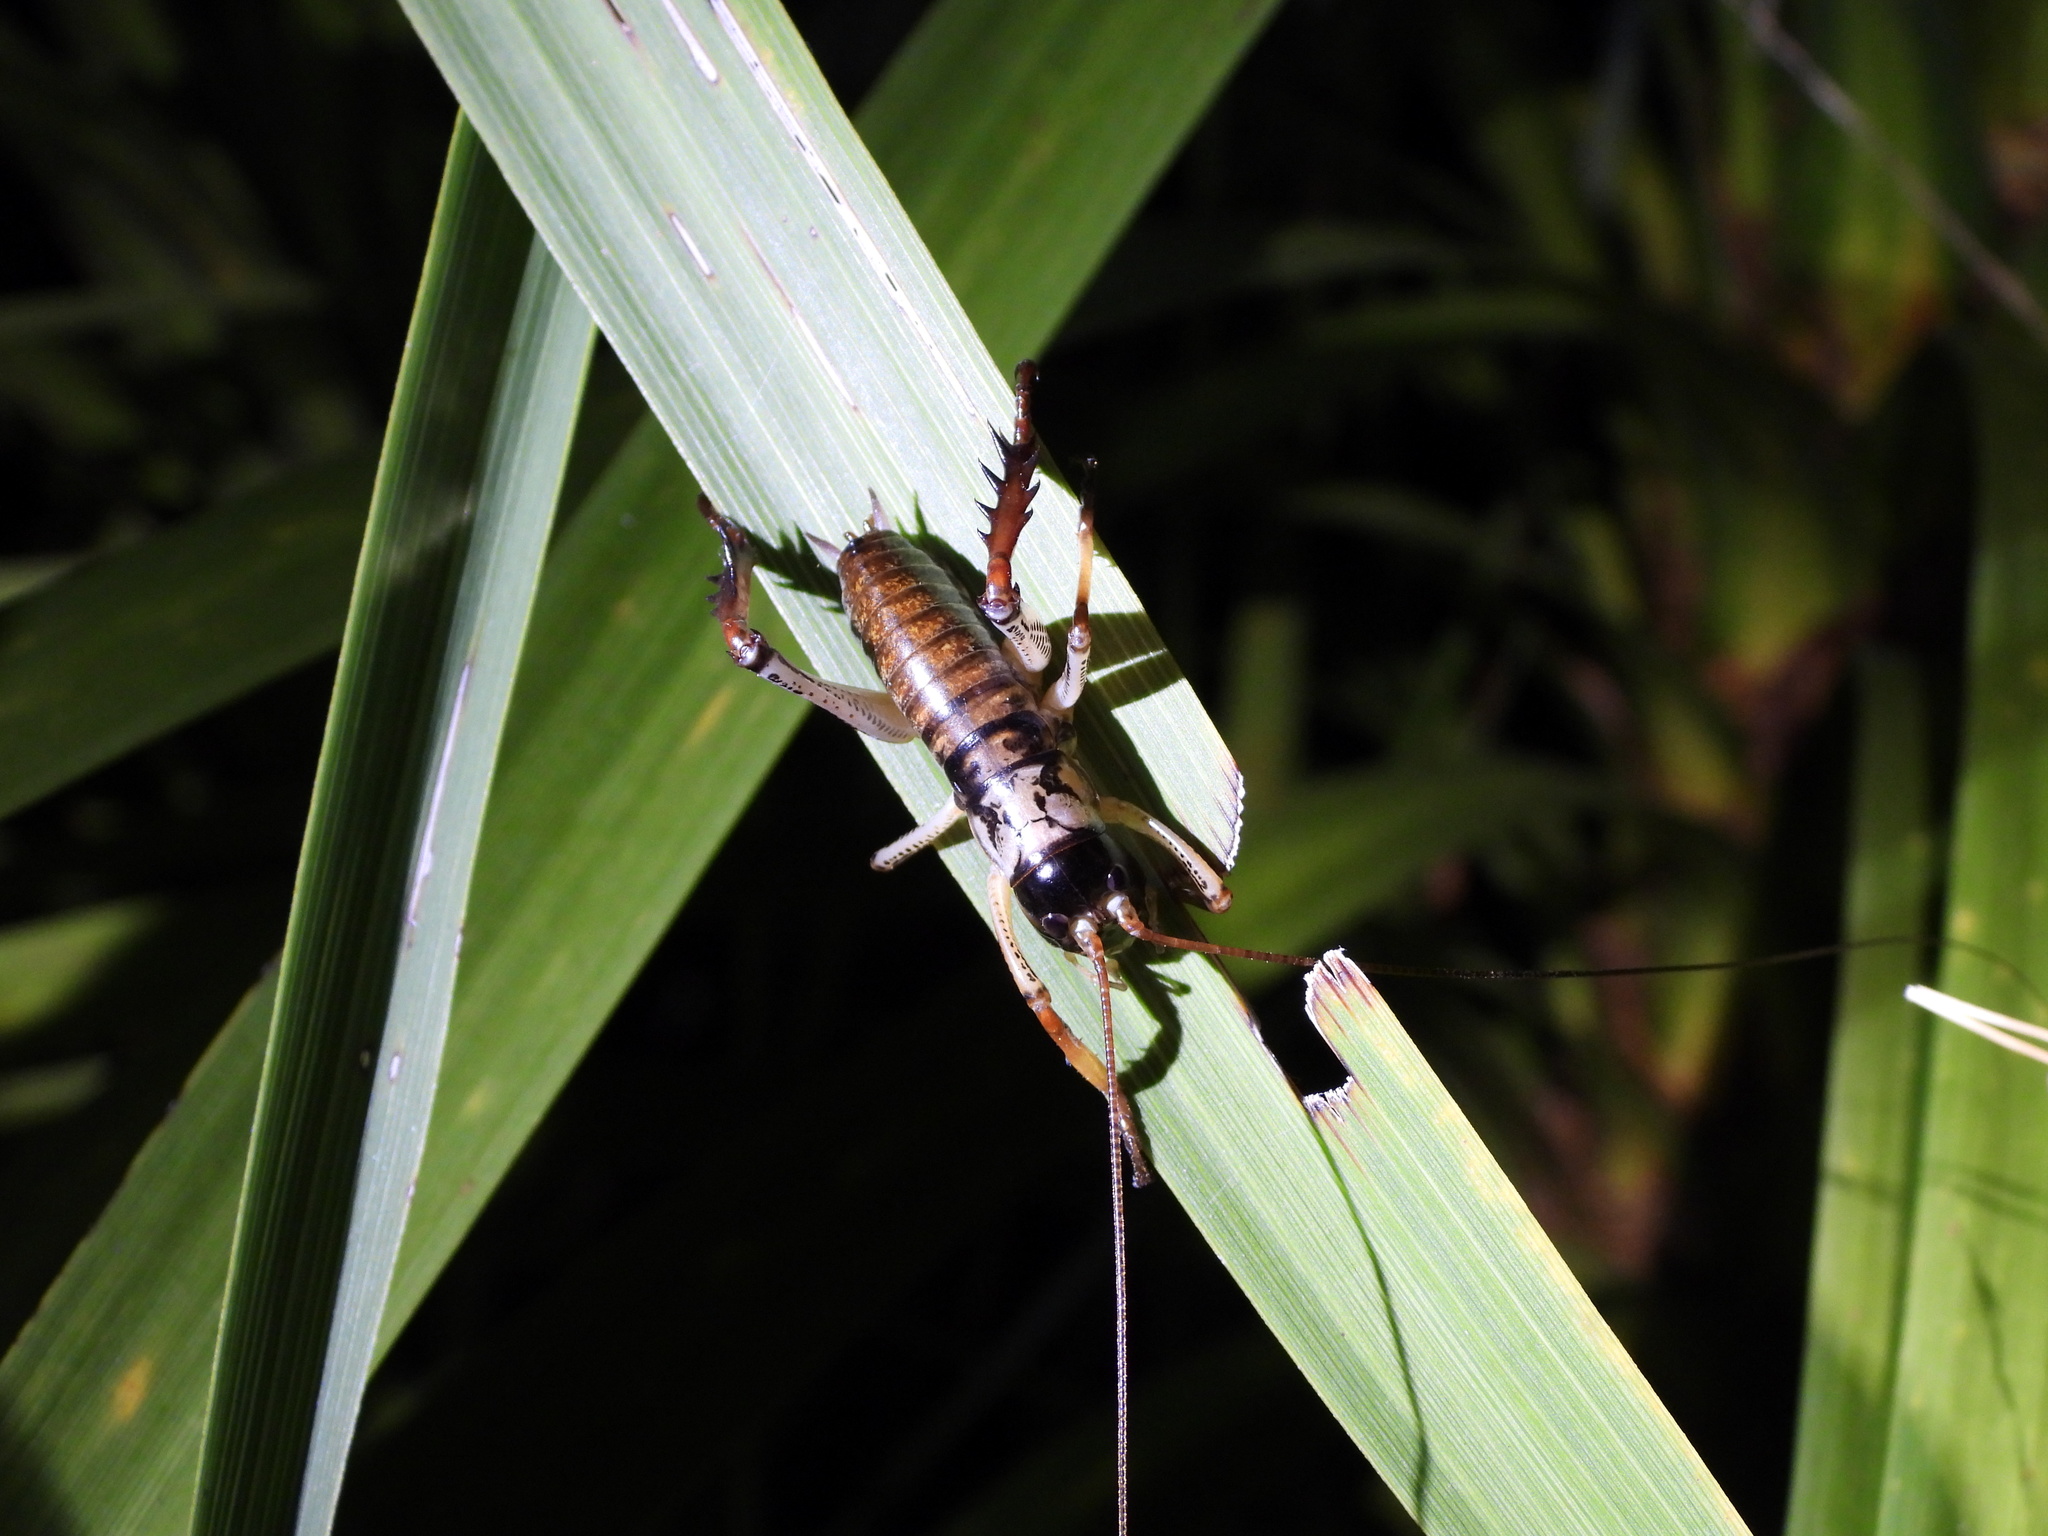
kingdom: Animalia
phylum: Arthropoda
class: Insecta
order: Orthoptera
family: Anostostomatidae
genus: Hemideina
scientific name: Hemideina thoracica
